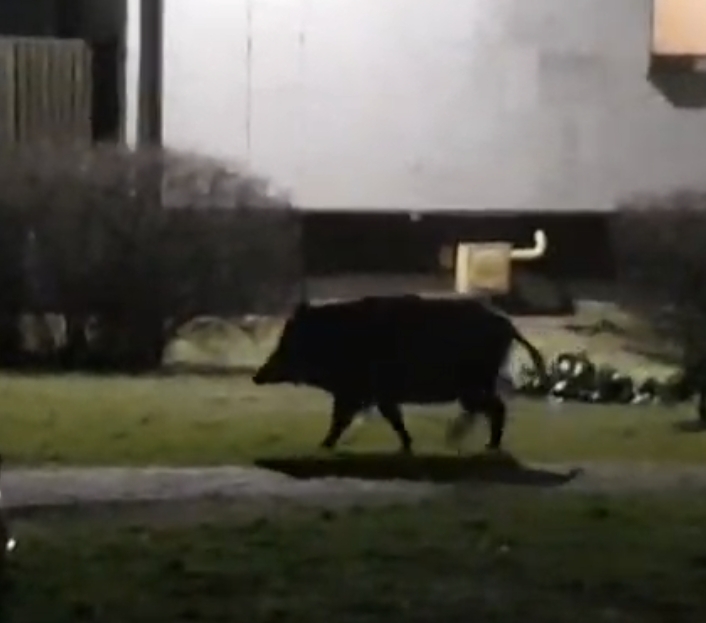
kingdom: Animalia
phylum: Chordata
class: Mammalia
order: Artiodactyla
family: Suidae
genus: Sus
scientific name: Sus scrofa
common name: Wild boar
